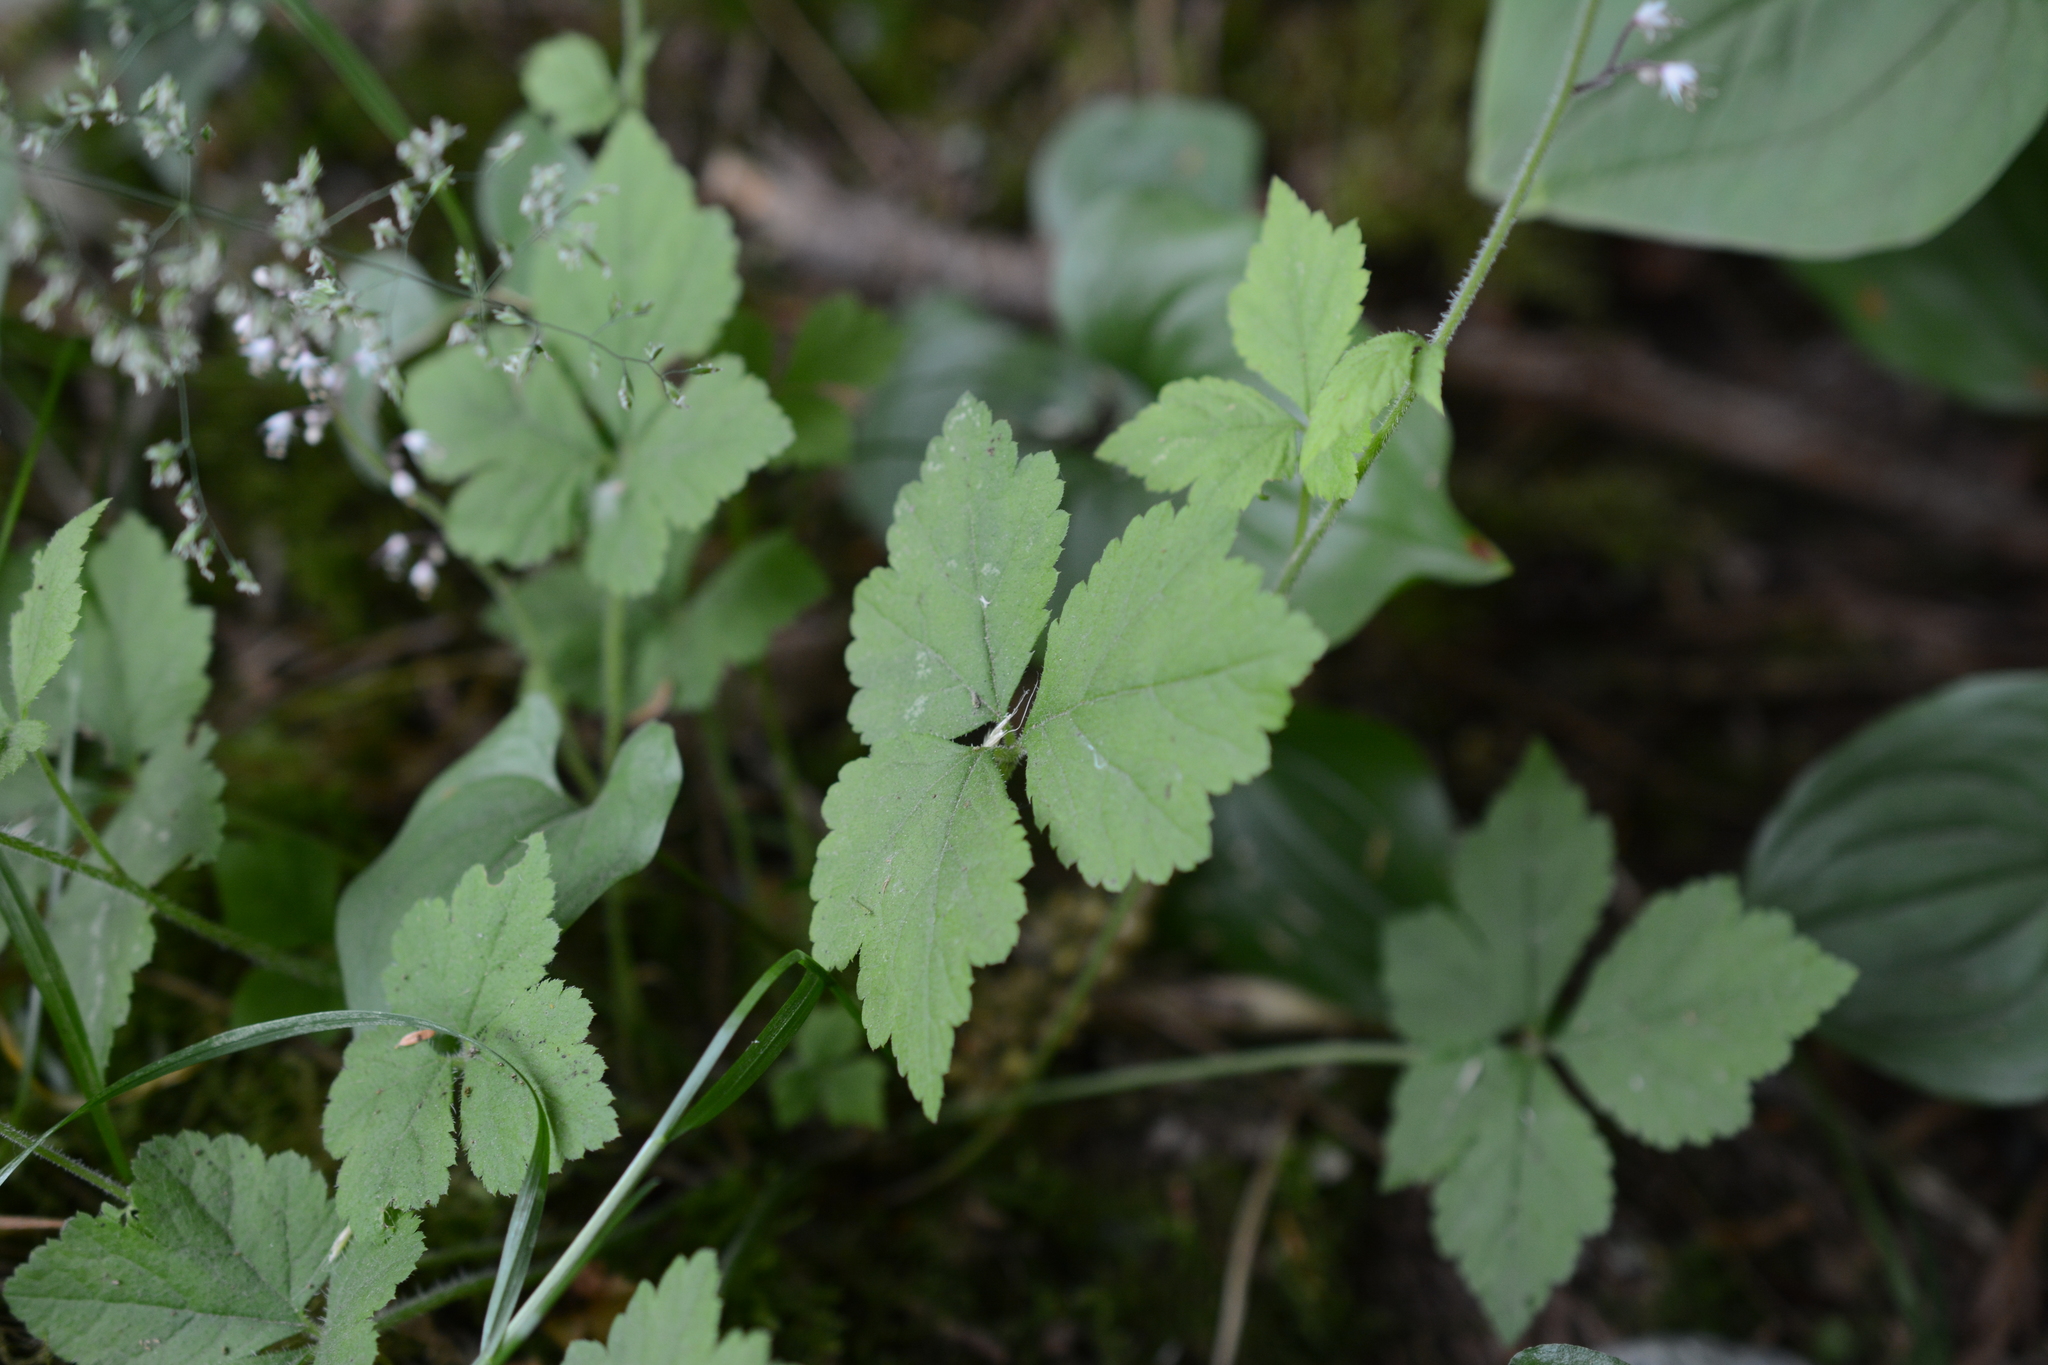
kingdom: Plantae
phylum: Tracheophyta
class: Magnoliopsida
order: Saxifragales
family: Saxifragaceae
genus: Tiarella
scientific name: Tiarella trifoliata
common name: Sugar-scoop
